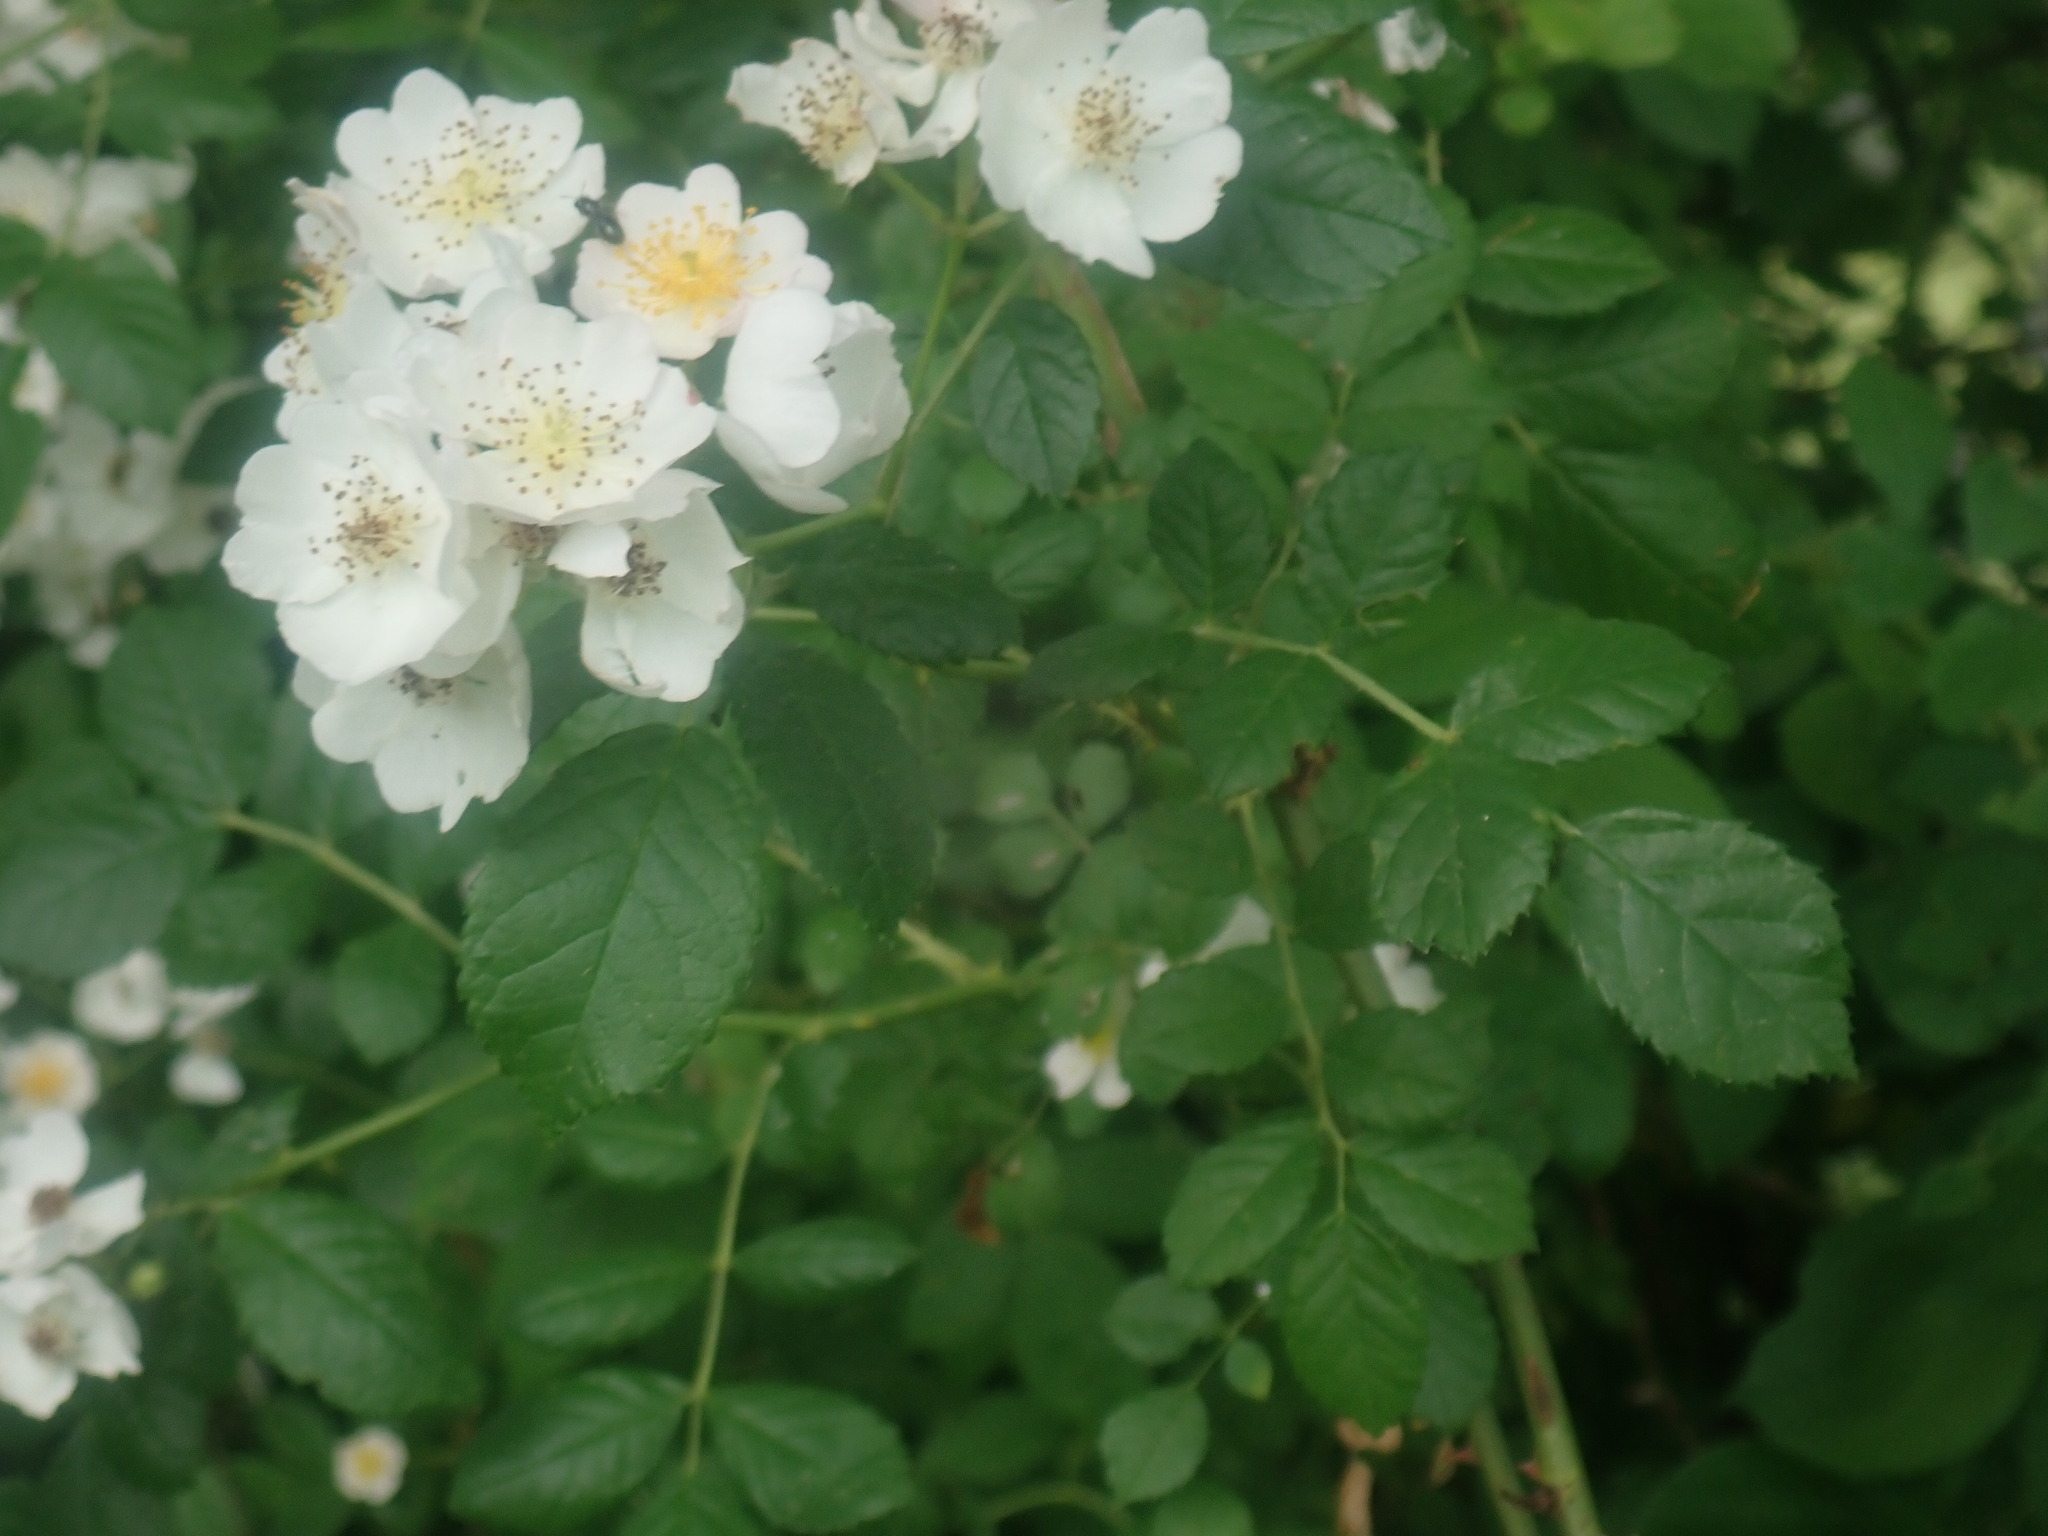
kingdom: Plantae
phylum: Tracheophyta
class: Magnoliopsida
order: Rosales
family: Rosaceae
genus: Rosa
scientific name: Rosa multiflora
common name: Multiflora rose
